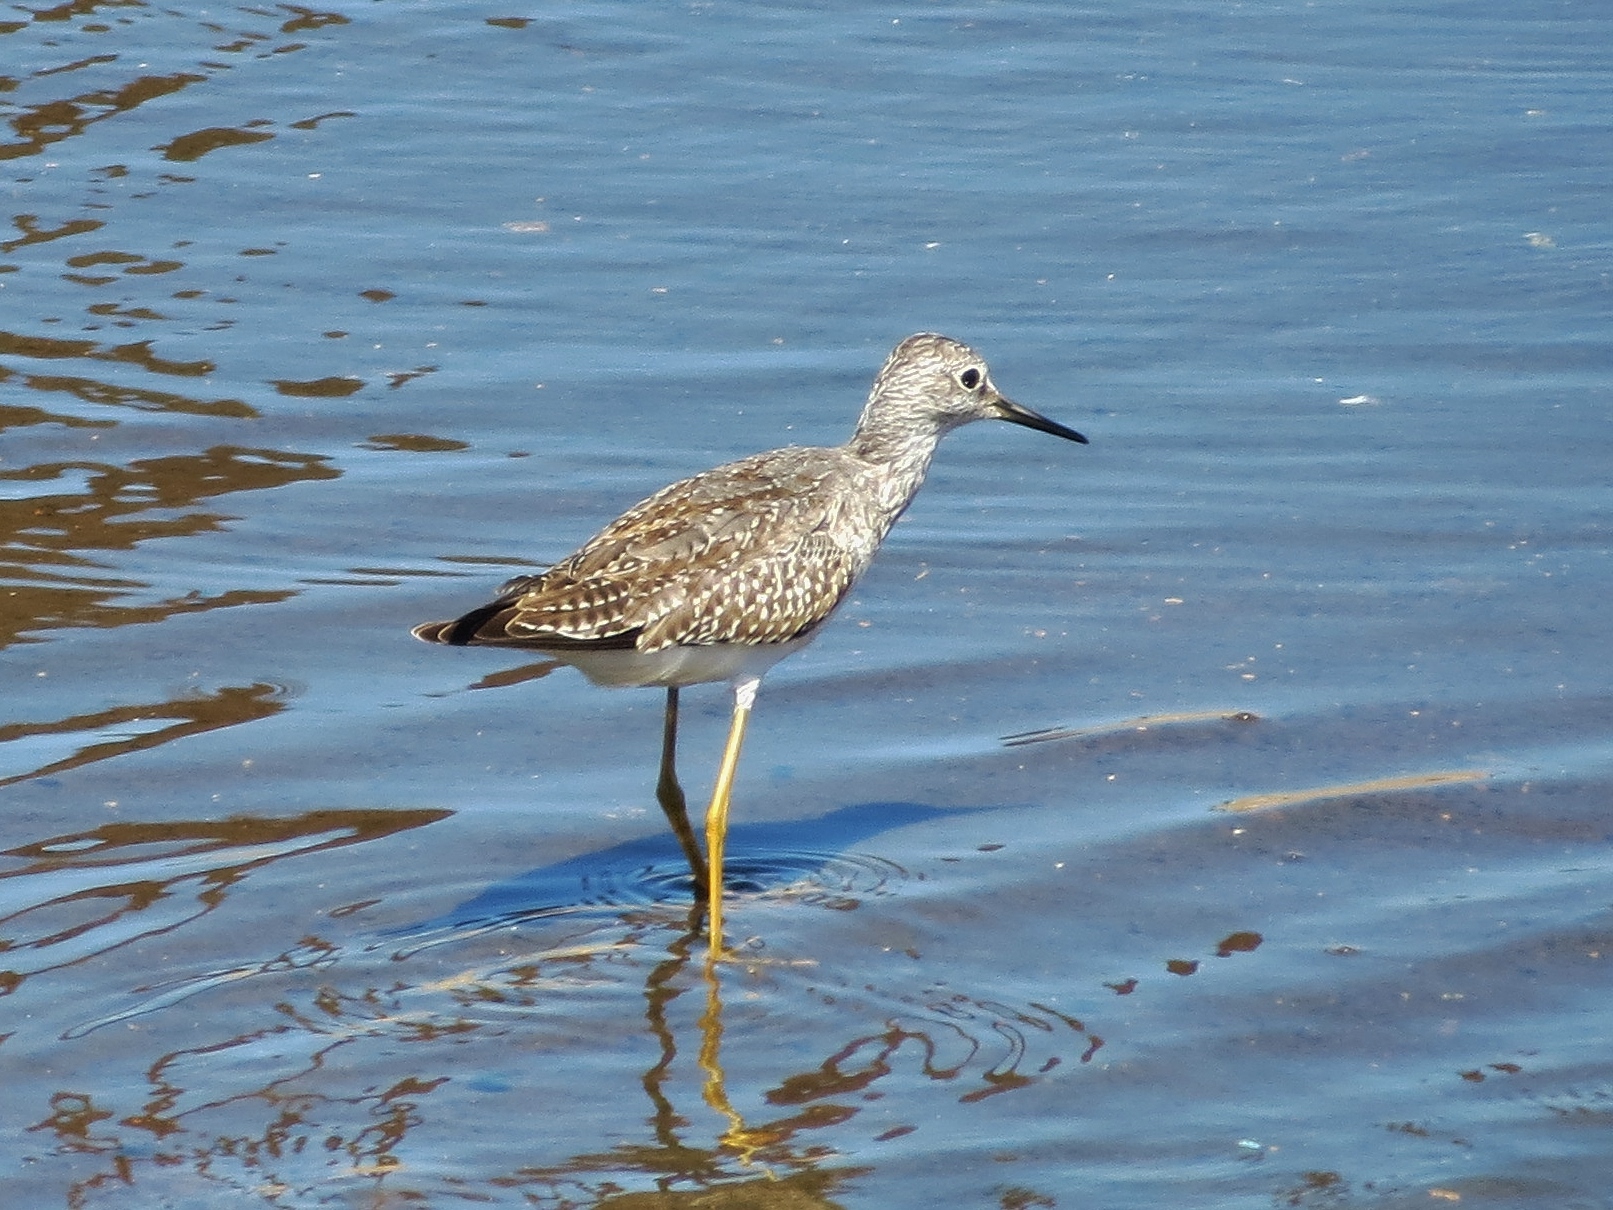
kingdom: Animalia
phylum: Chordata
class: Aves
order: Charadriiformes
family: Scolopacidae
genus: Tringa
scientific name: Tringa melanoleuca
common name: Greater yellowlegs
